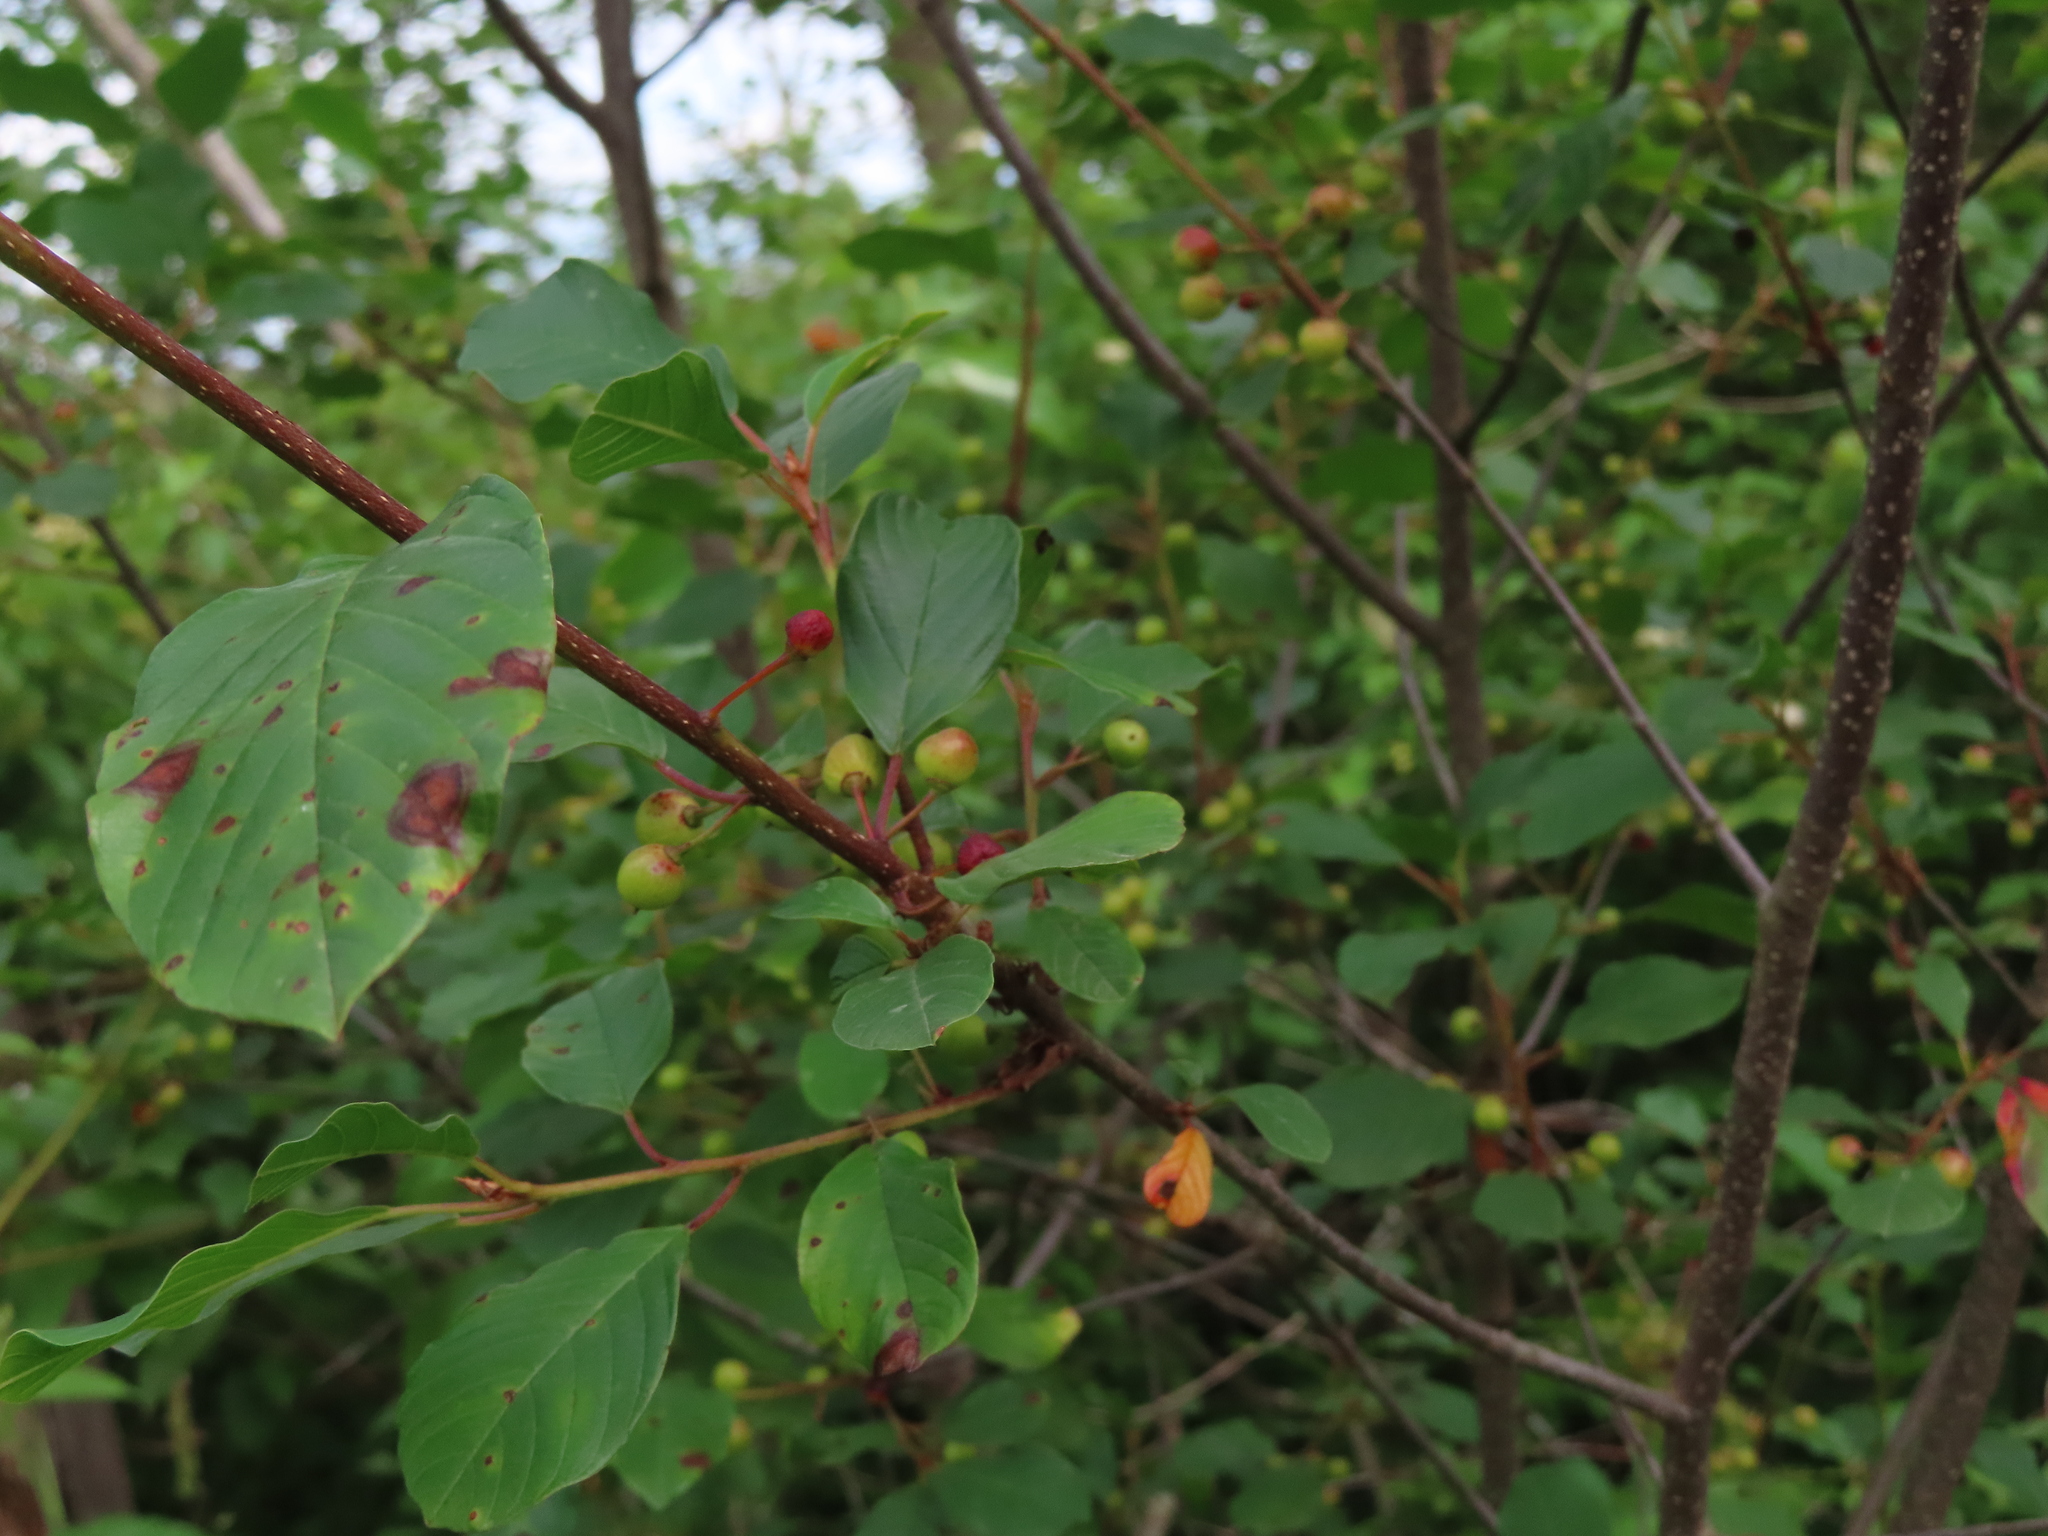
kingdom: Plantae
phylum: Tracheophyta
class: Magnoliopsida
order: Rosales
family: Rhamnaceae
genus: Frangula
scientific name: Frangula alnus
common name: Alder buckthorn
